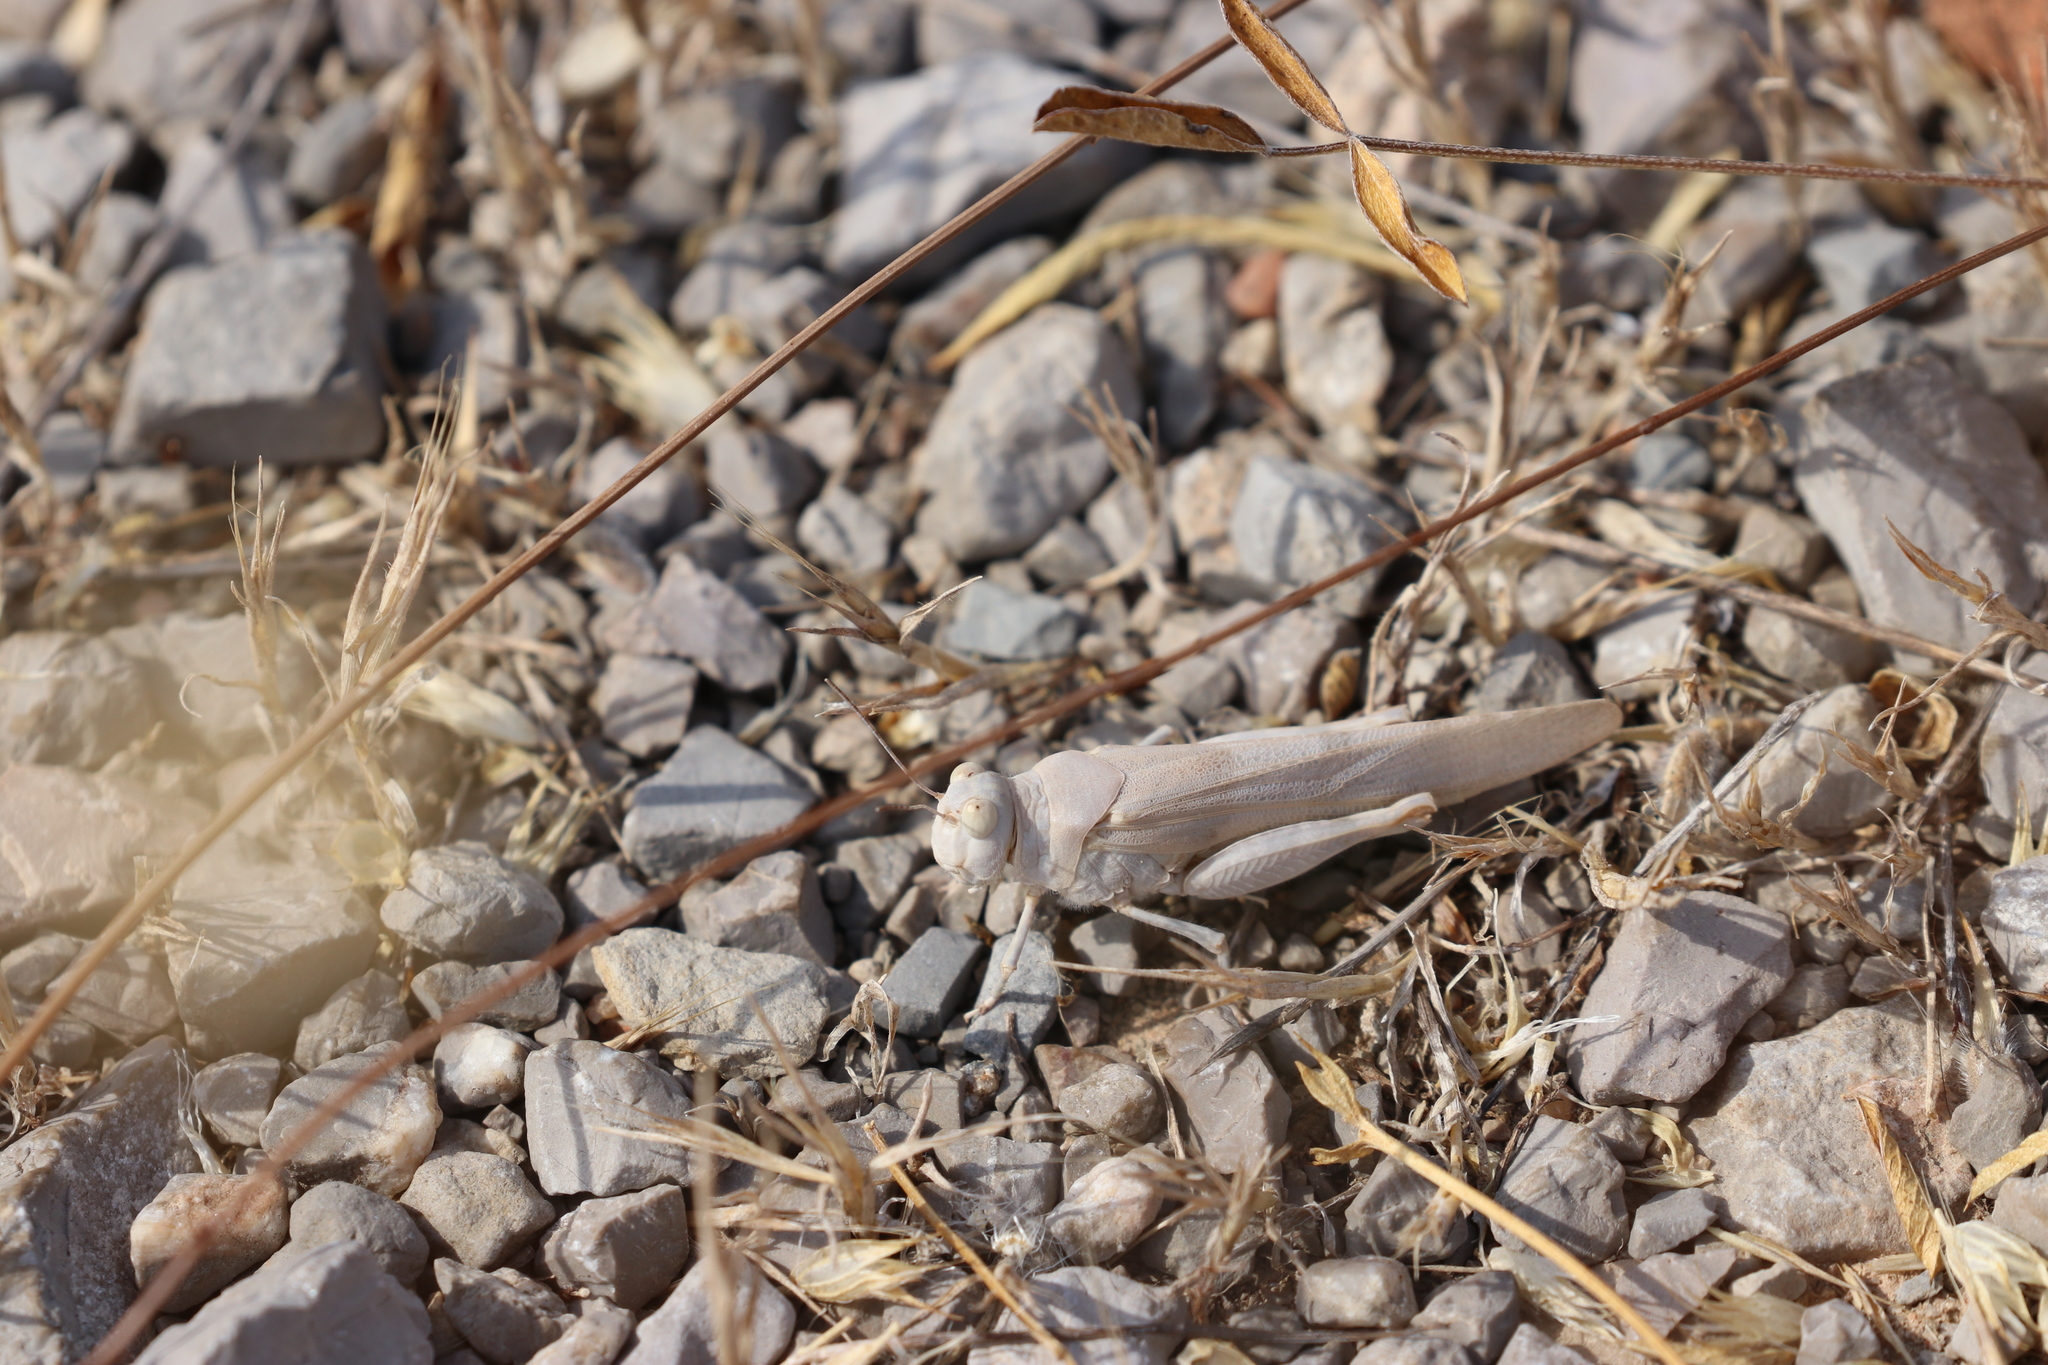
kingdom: Animalia
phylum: Arthropoda
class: Insecta
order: Orthoptera
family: Acrididae
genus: Sphingonotus
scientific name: Sphingonotus caerulans
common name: Blue-winged locust
